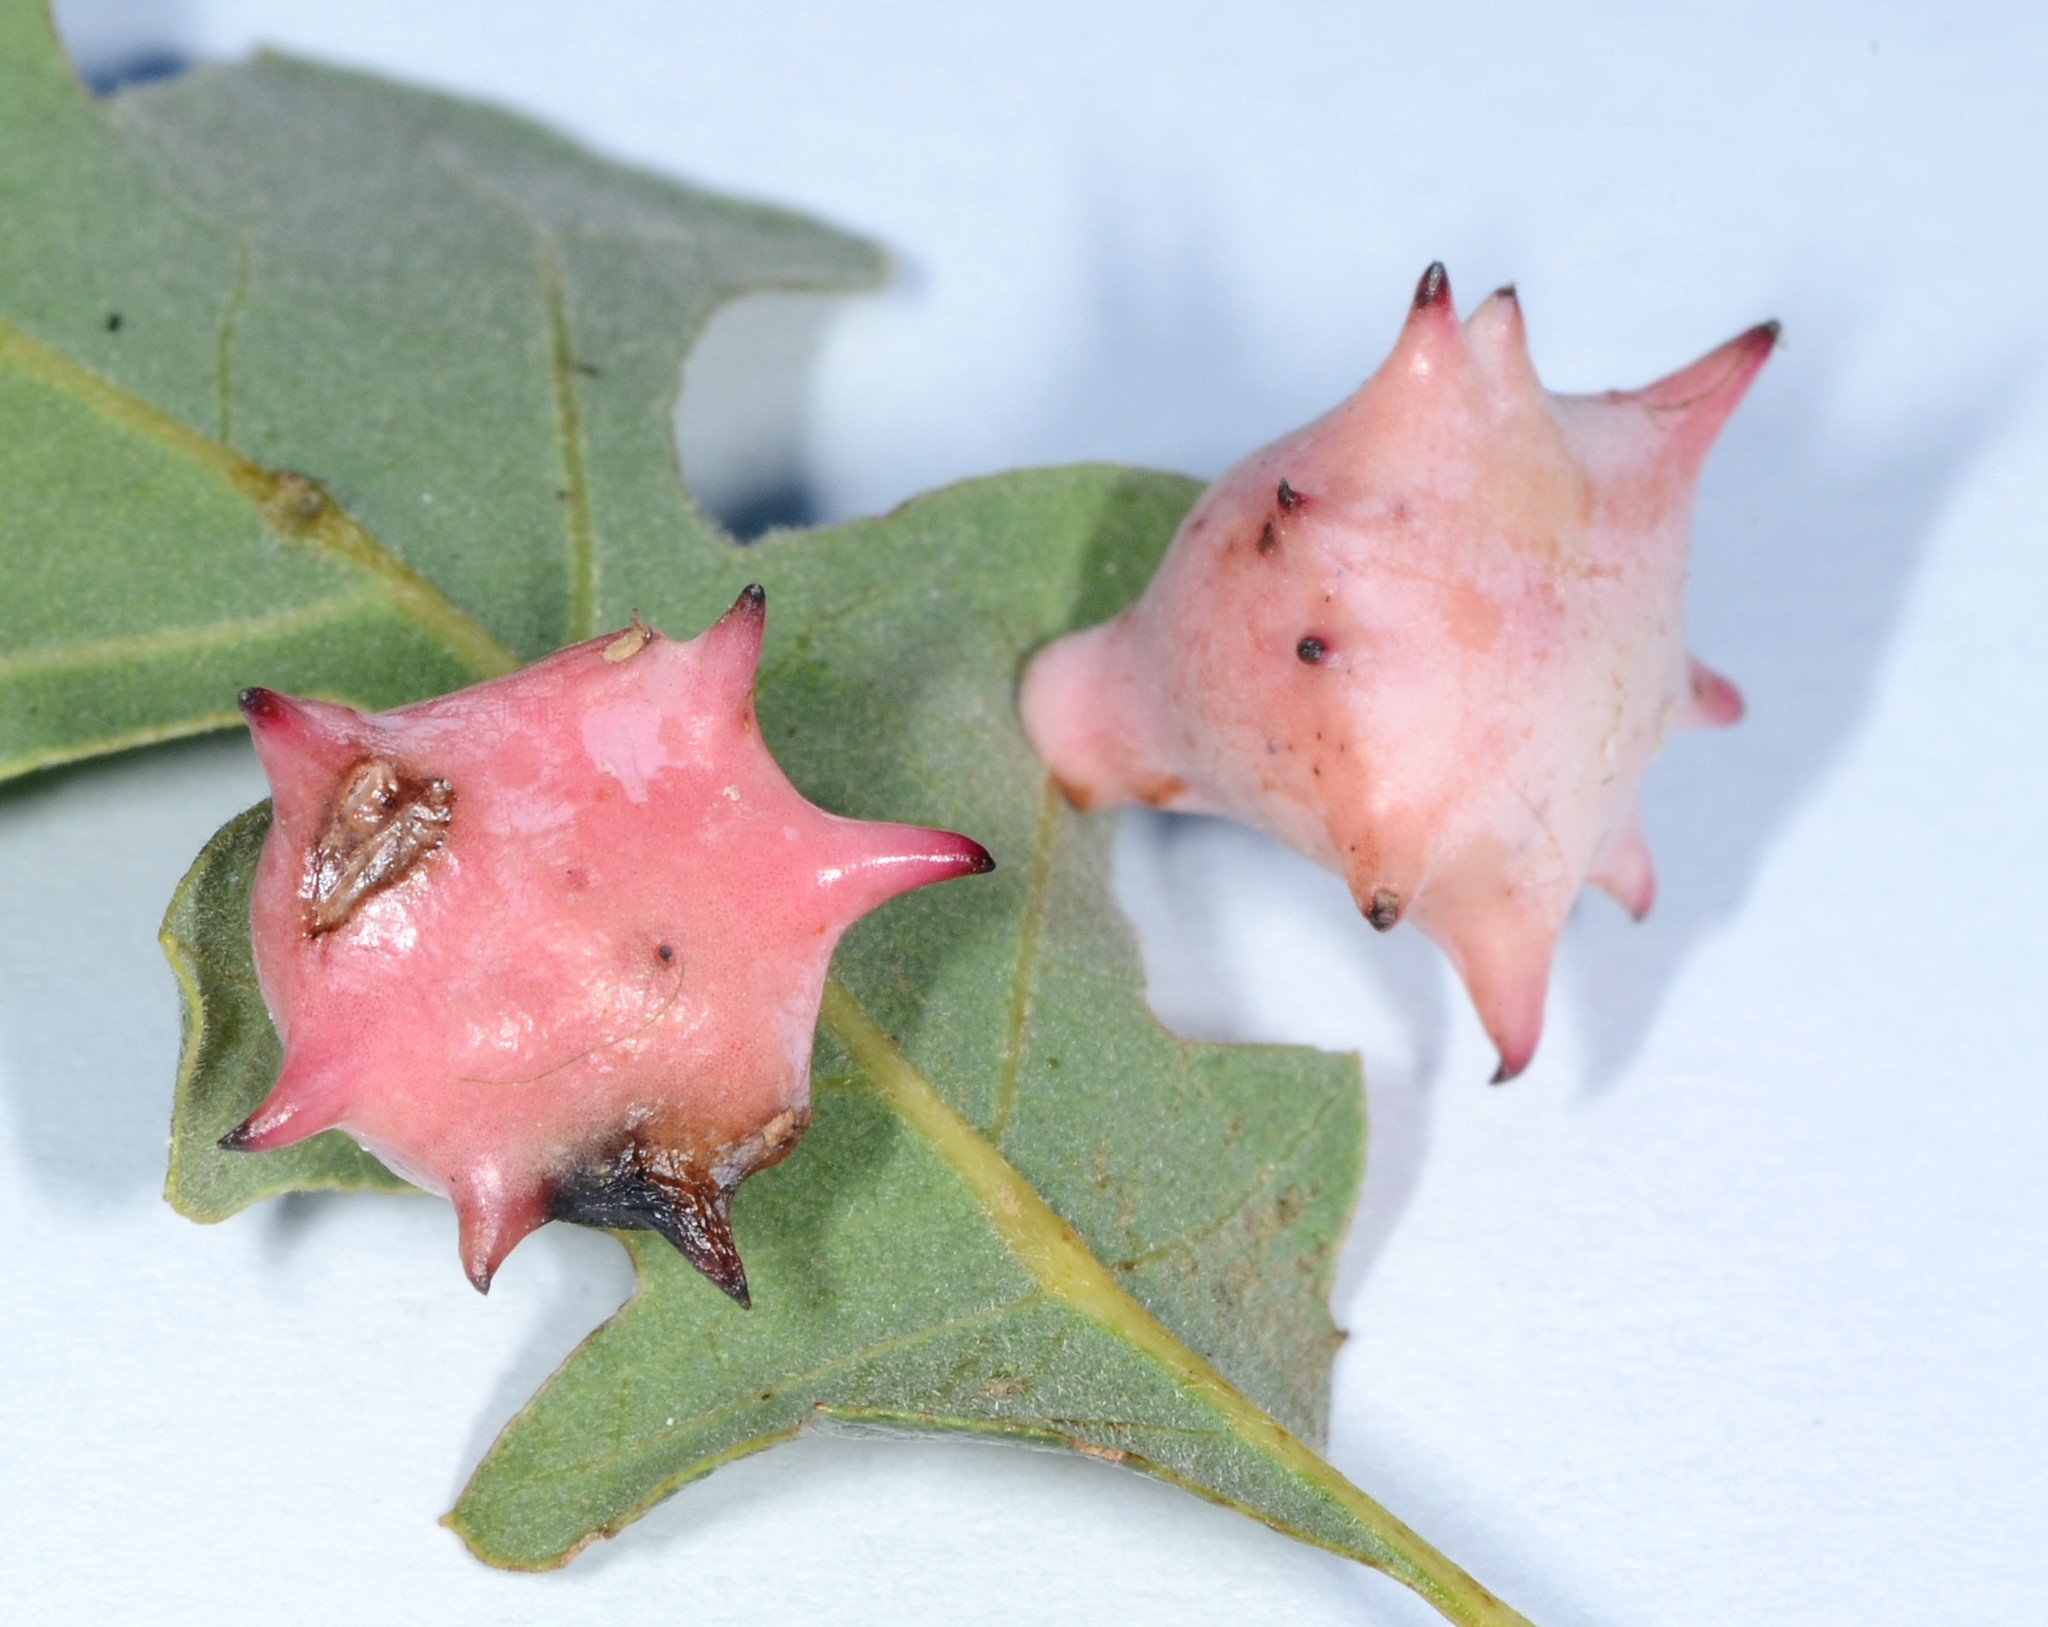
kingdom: Animalia
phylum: Arthropoda
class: Insecta
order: Hymenoptera
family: Cynipidae
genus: Cynips
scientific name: Cynips douglasi
